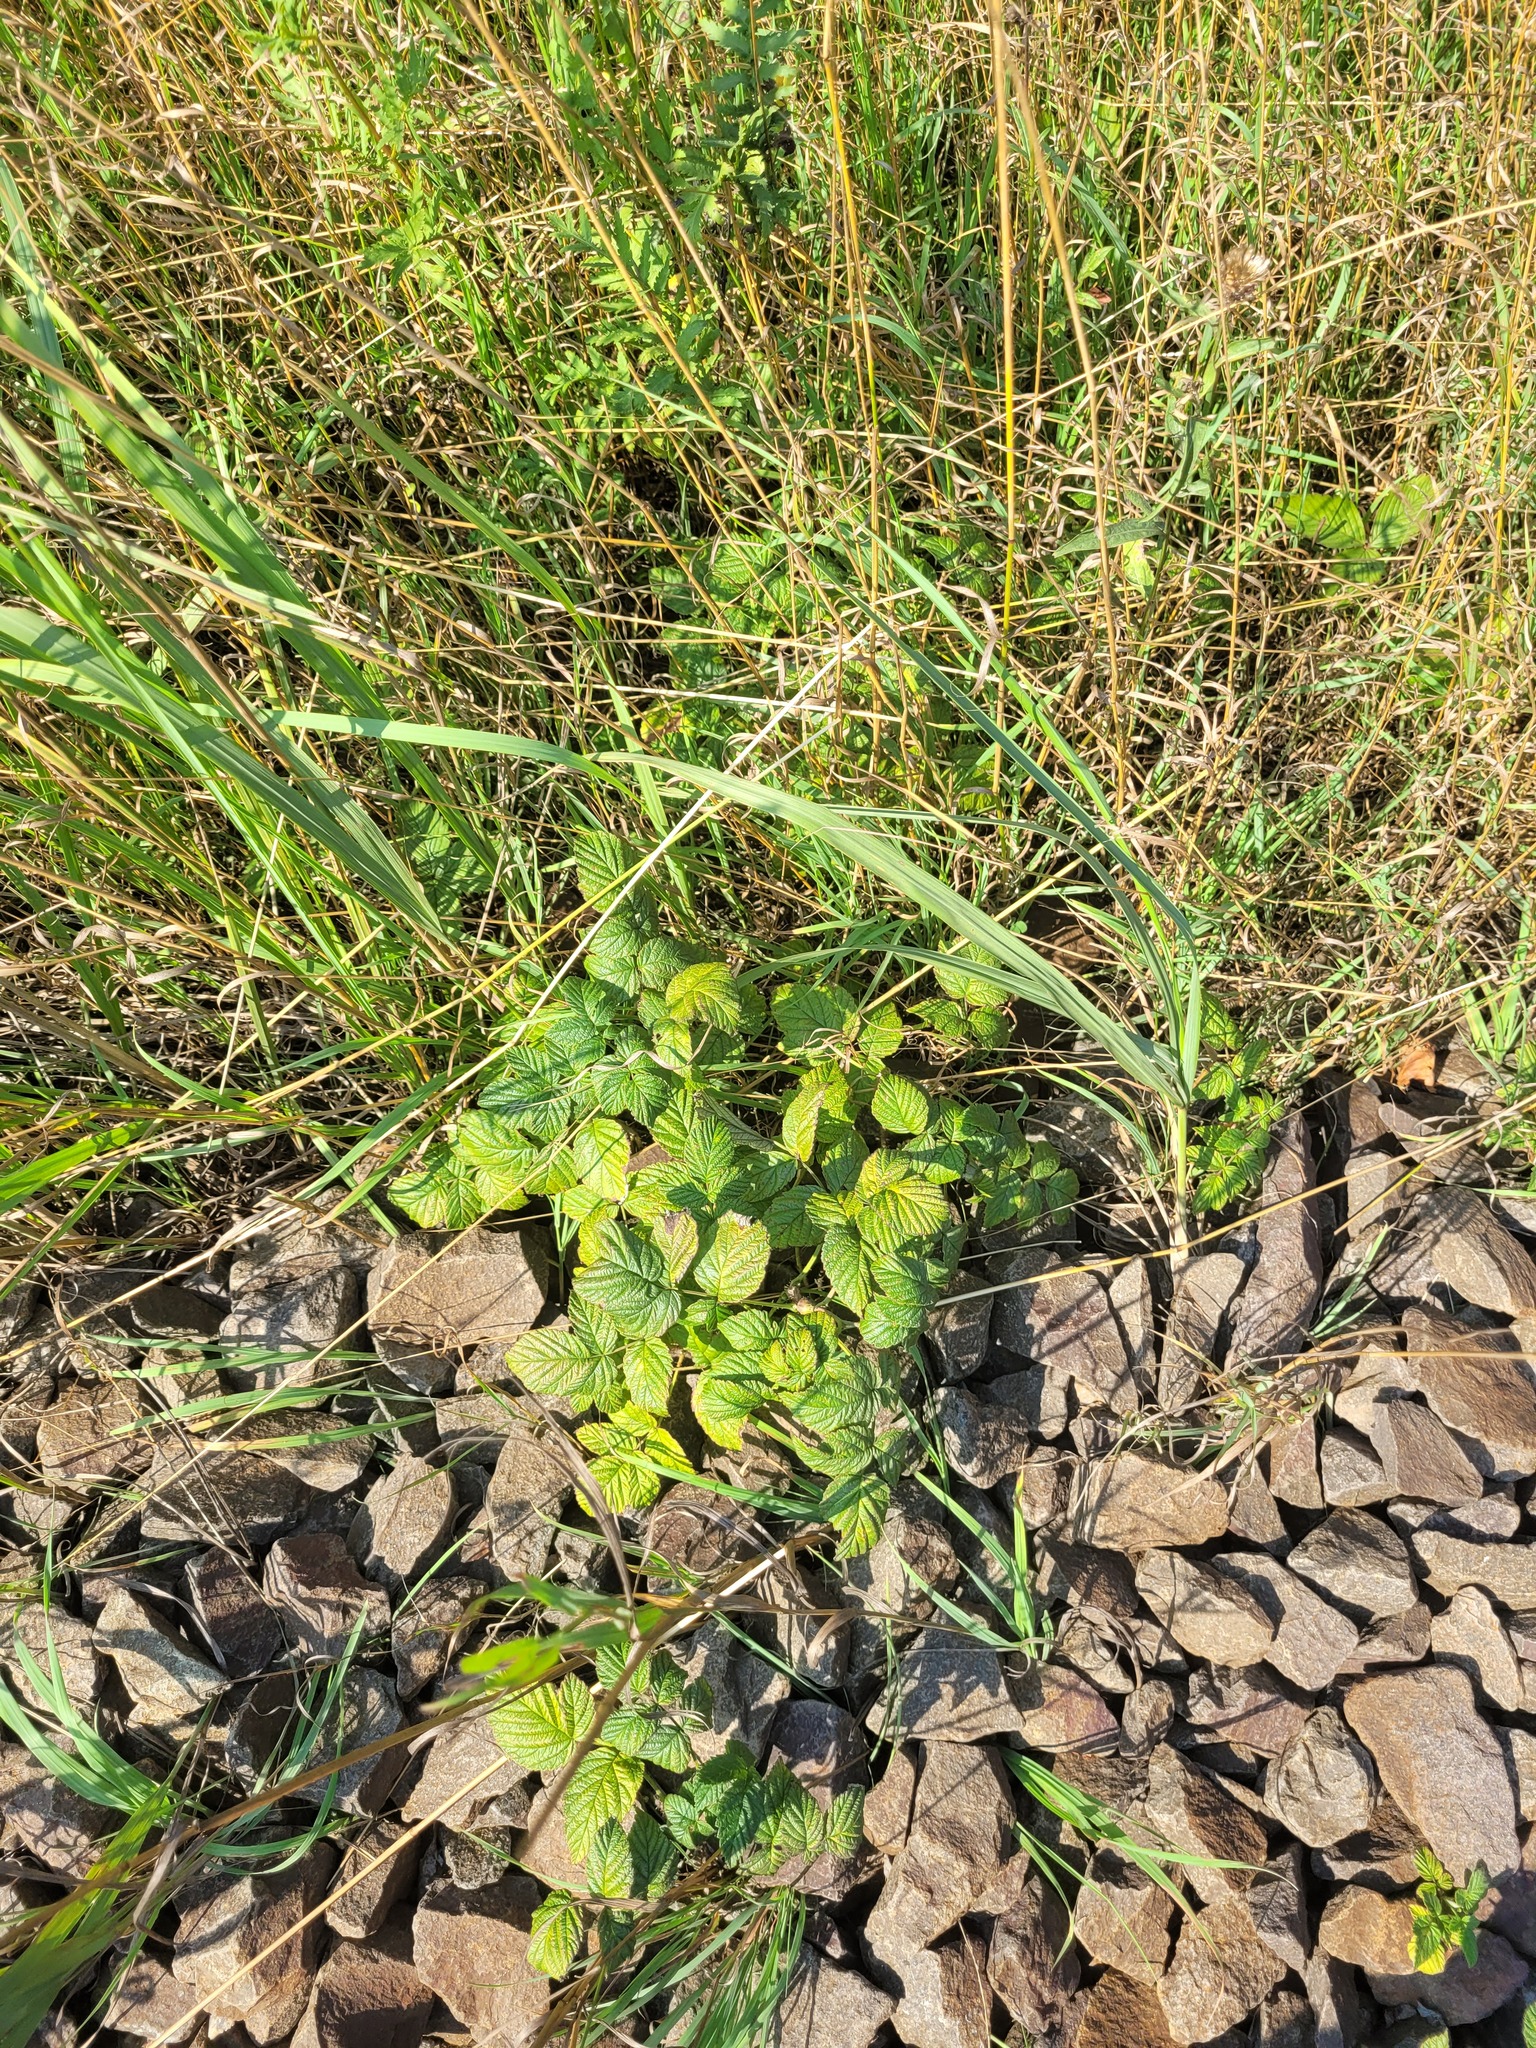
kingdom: Plantae
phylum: Tracheophyta
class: Magnoliopsida
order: Rosales
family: Rosaceae
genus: Rubus
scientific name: Rubus idaeus
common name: Raspberry
